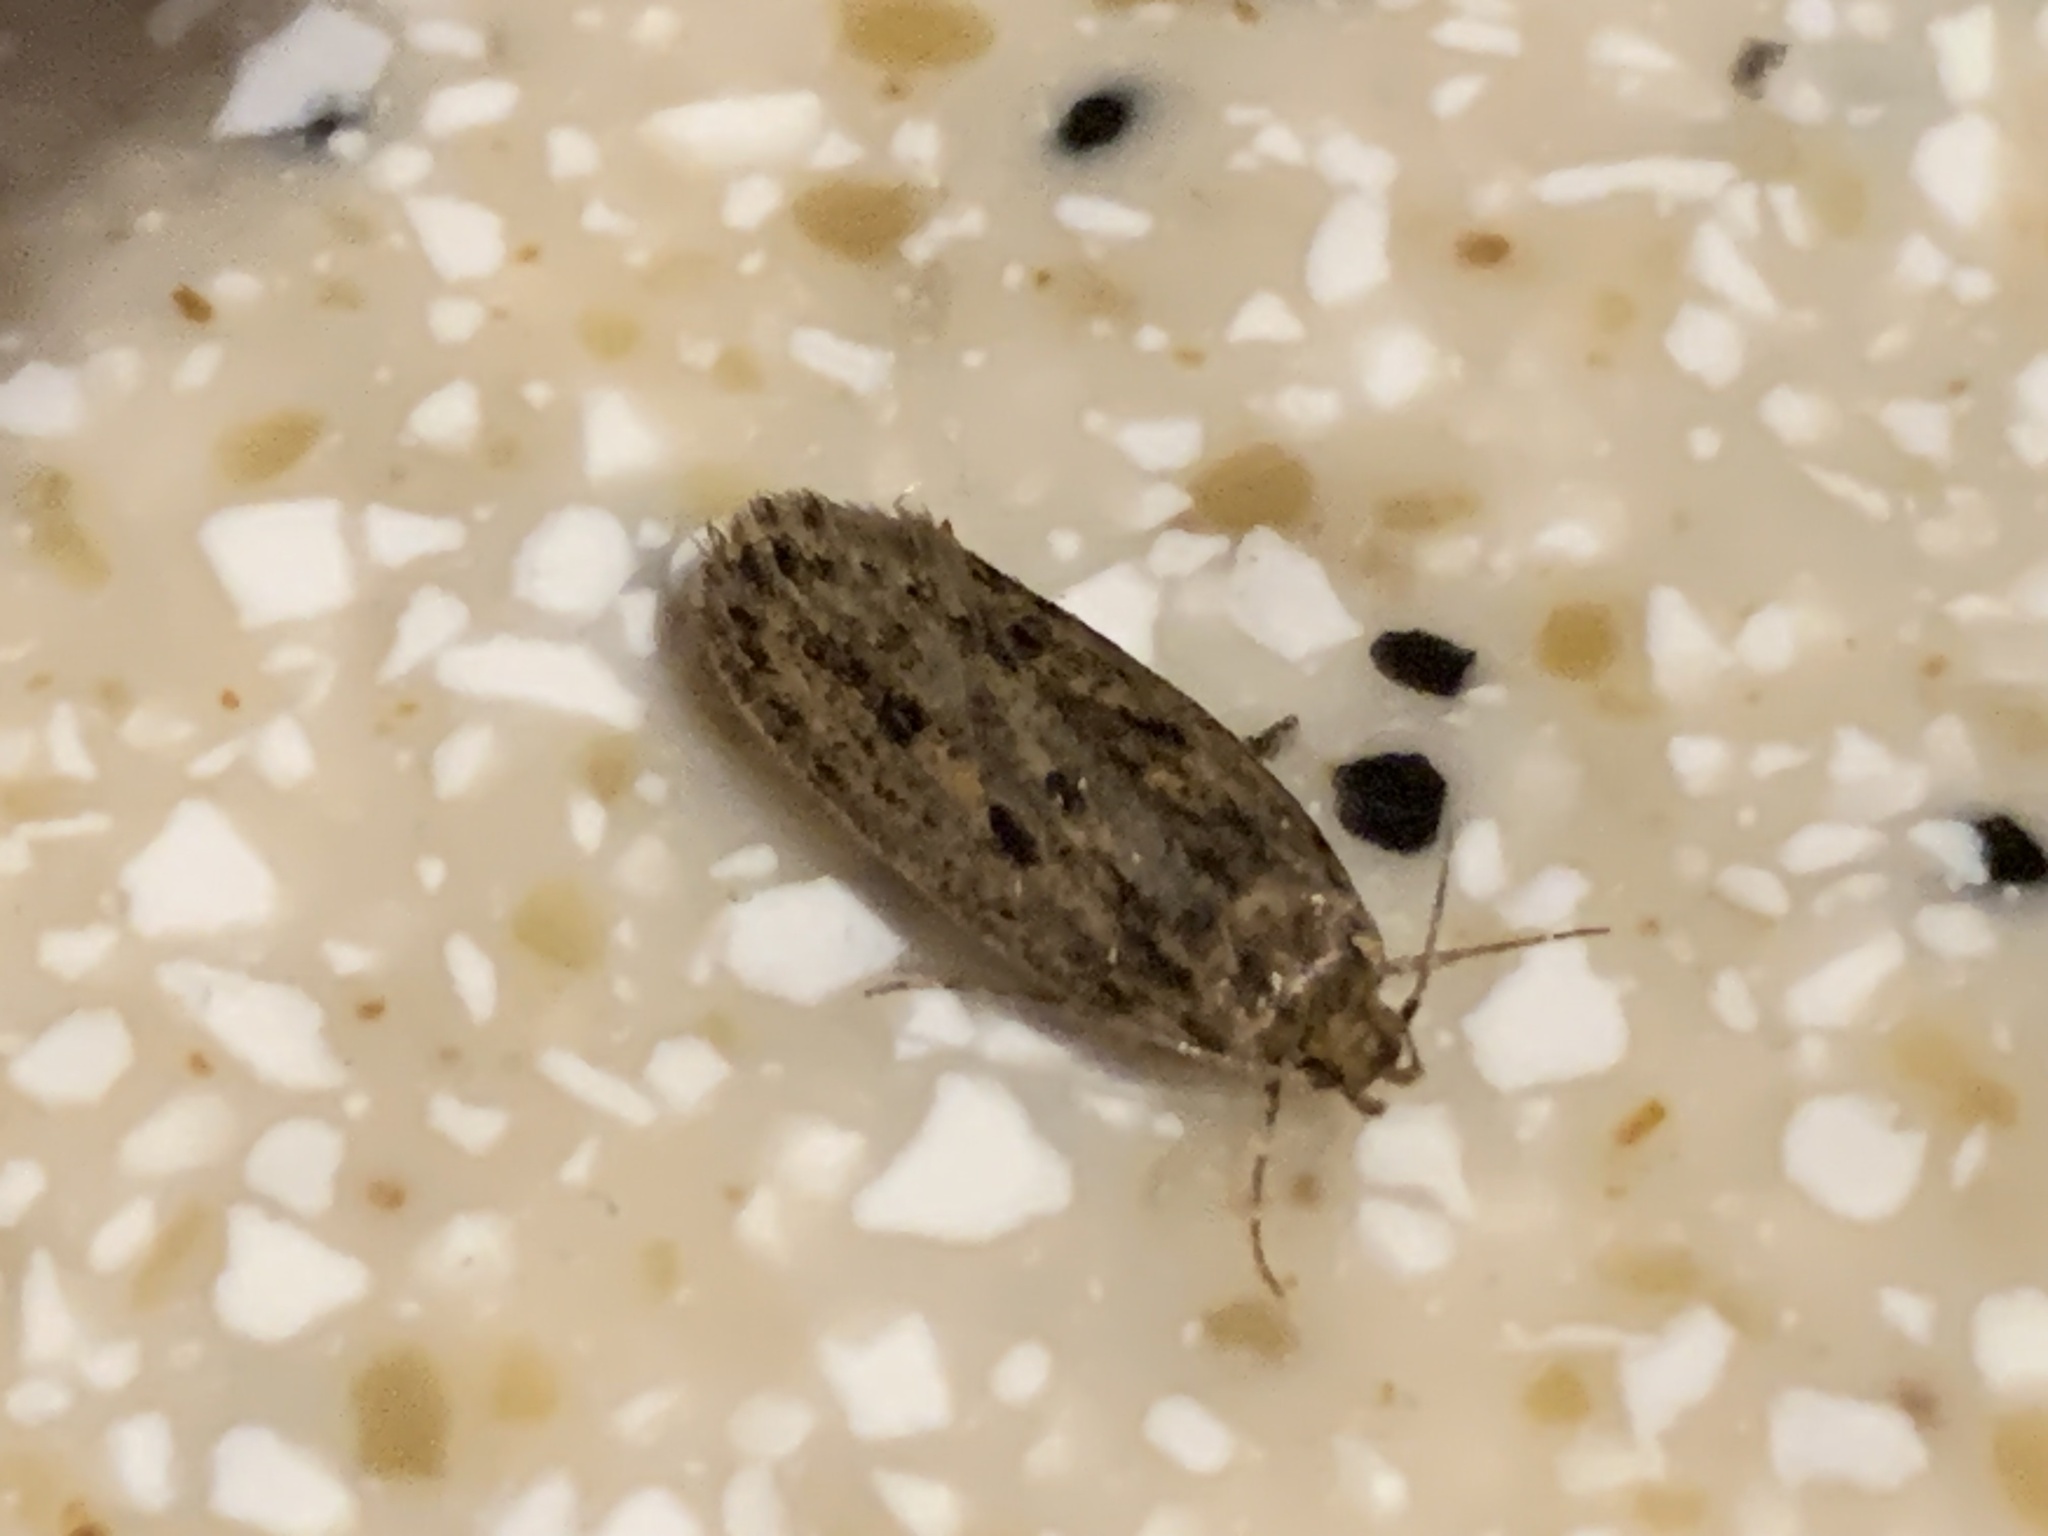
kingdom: Animalia
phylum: Arthropoda
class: Insecta
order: Lepidoptera
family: Oecophoridae
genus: Hofmannophila
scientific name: Hofmannophila pseudospretella
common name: Brown house moth
